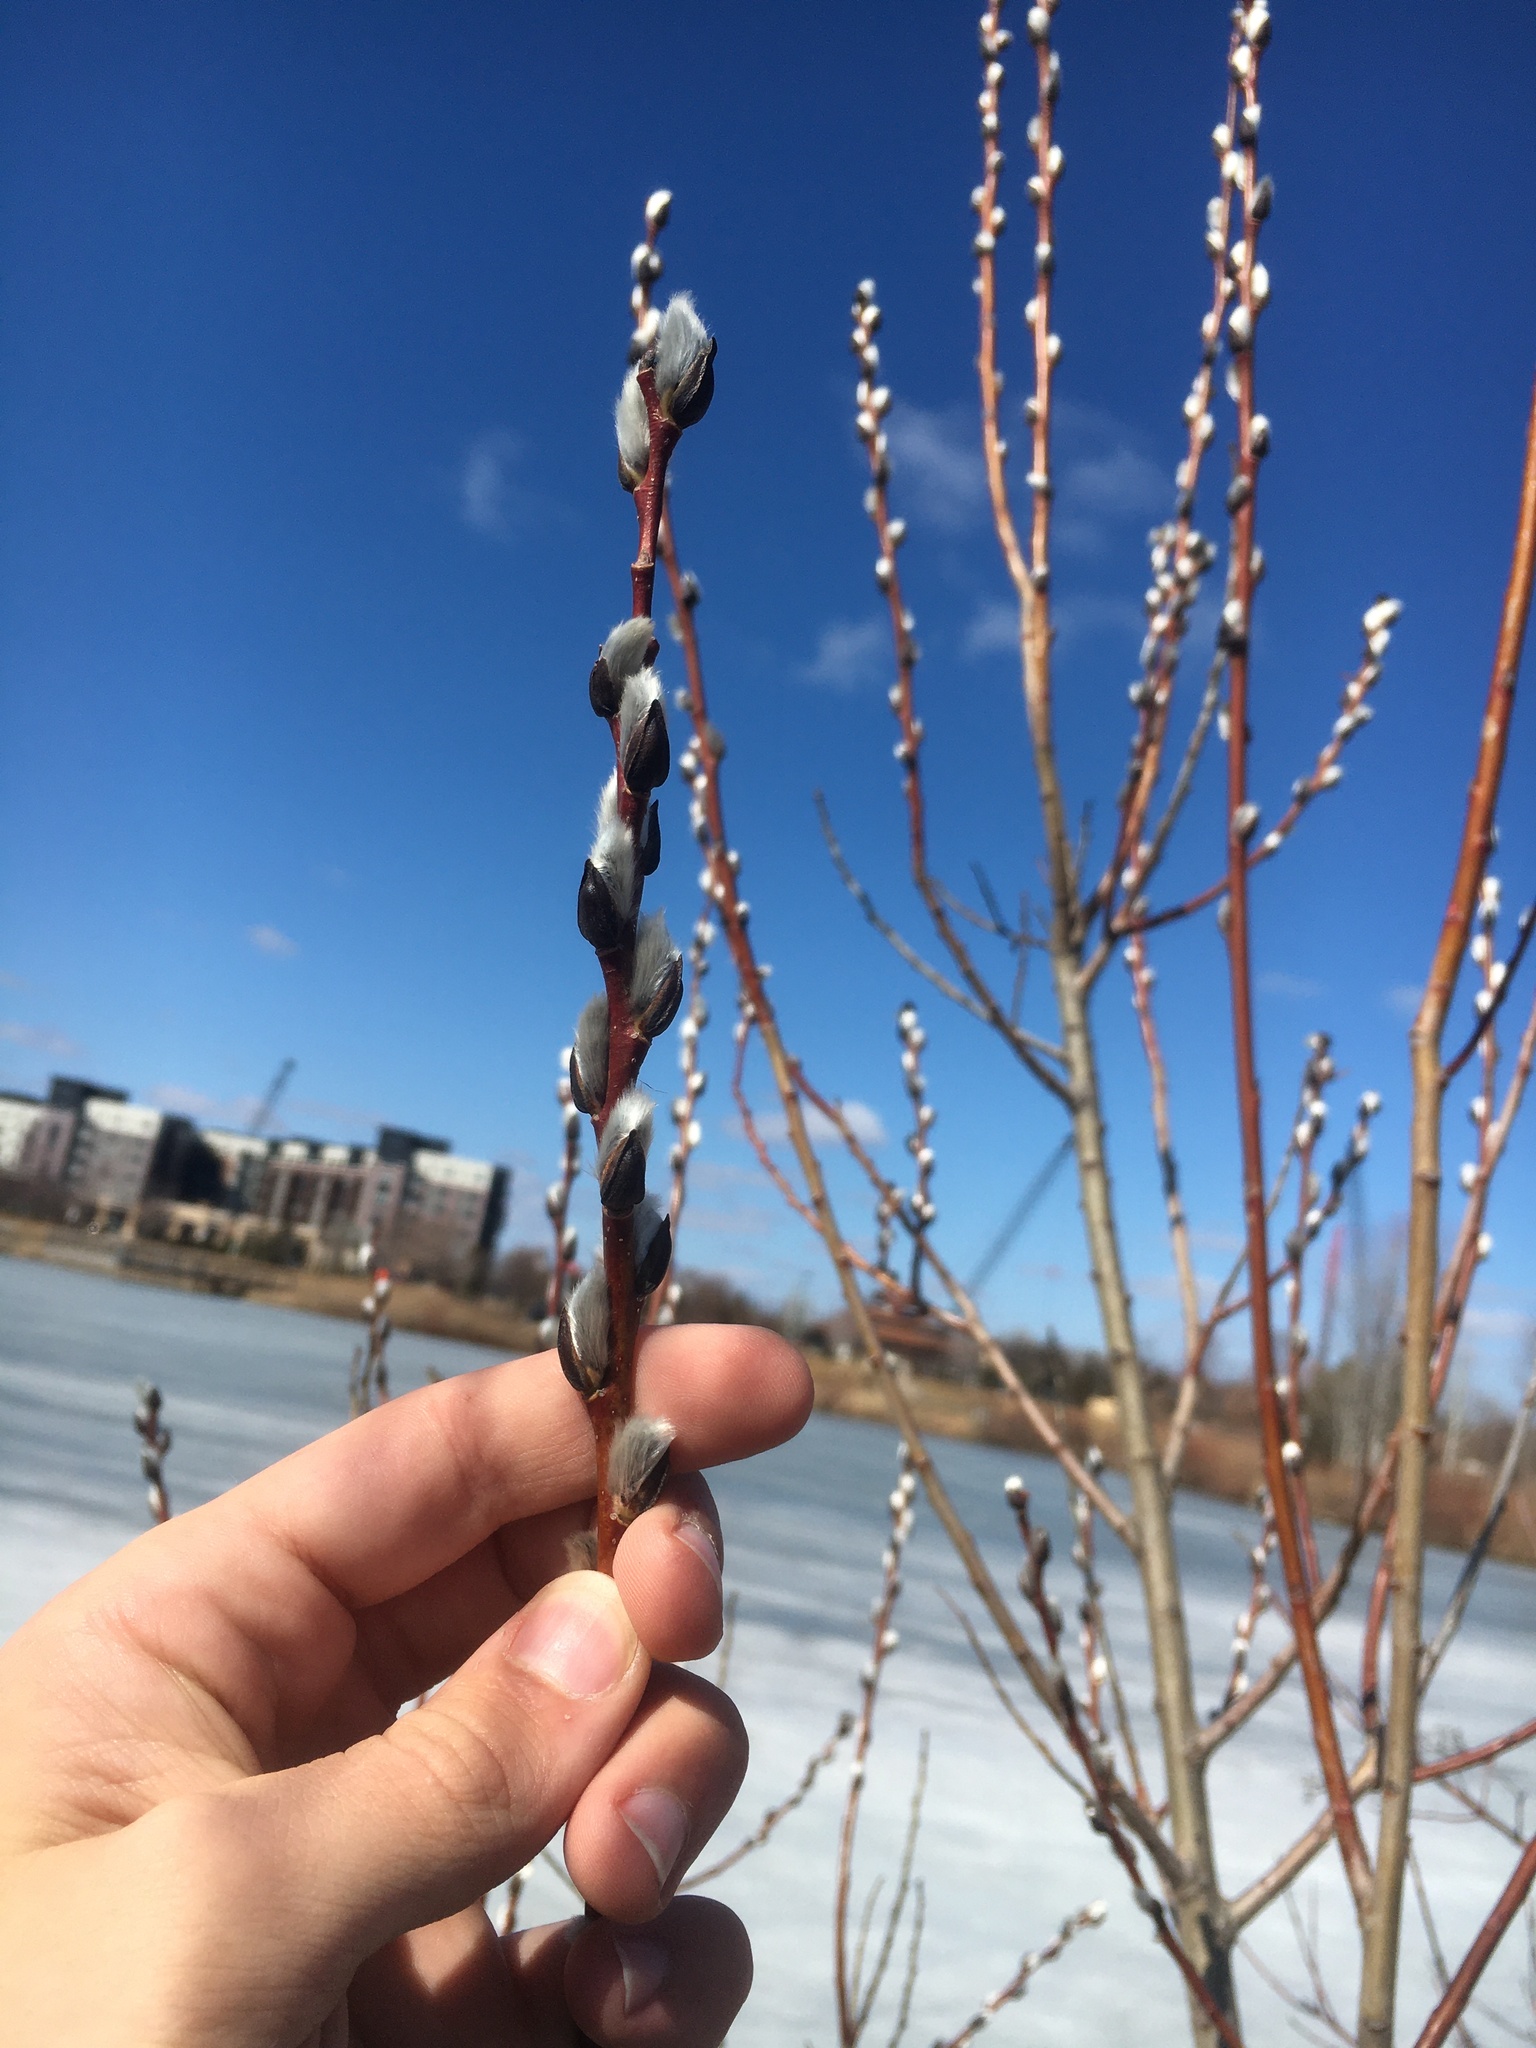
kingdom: Plantae
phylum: Tracheophyta
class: Magnoliopsida
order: Malpighiales
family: Salicaceae
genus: Salix
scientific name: Salix discolor
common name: Glaucous willow
